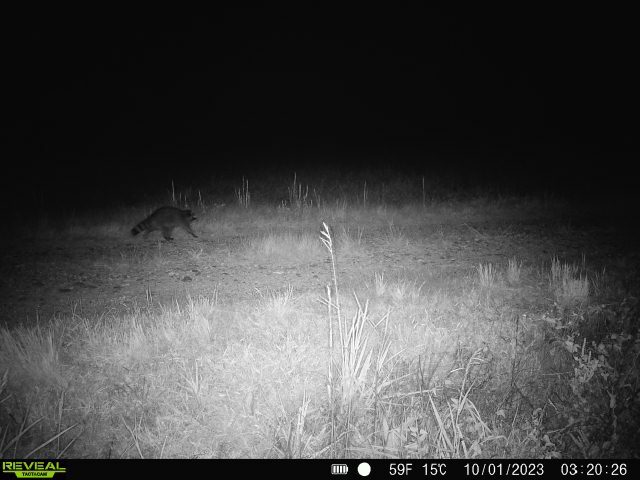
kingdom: Animalia
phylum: Chordata
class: Mammalia
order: Carnivora
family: Procyonidae
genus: Procyon
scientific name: Procyon lotor
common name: Raccoon
